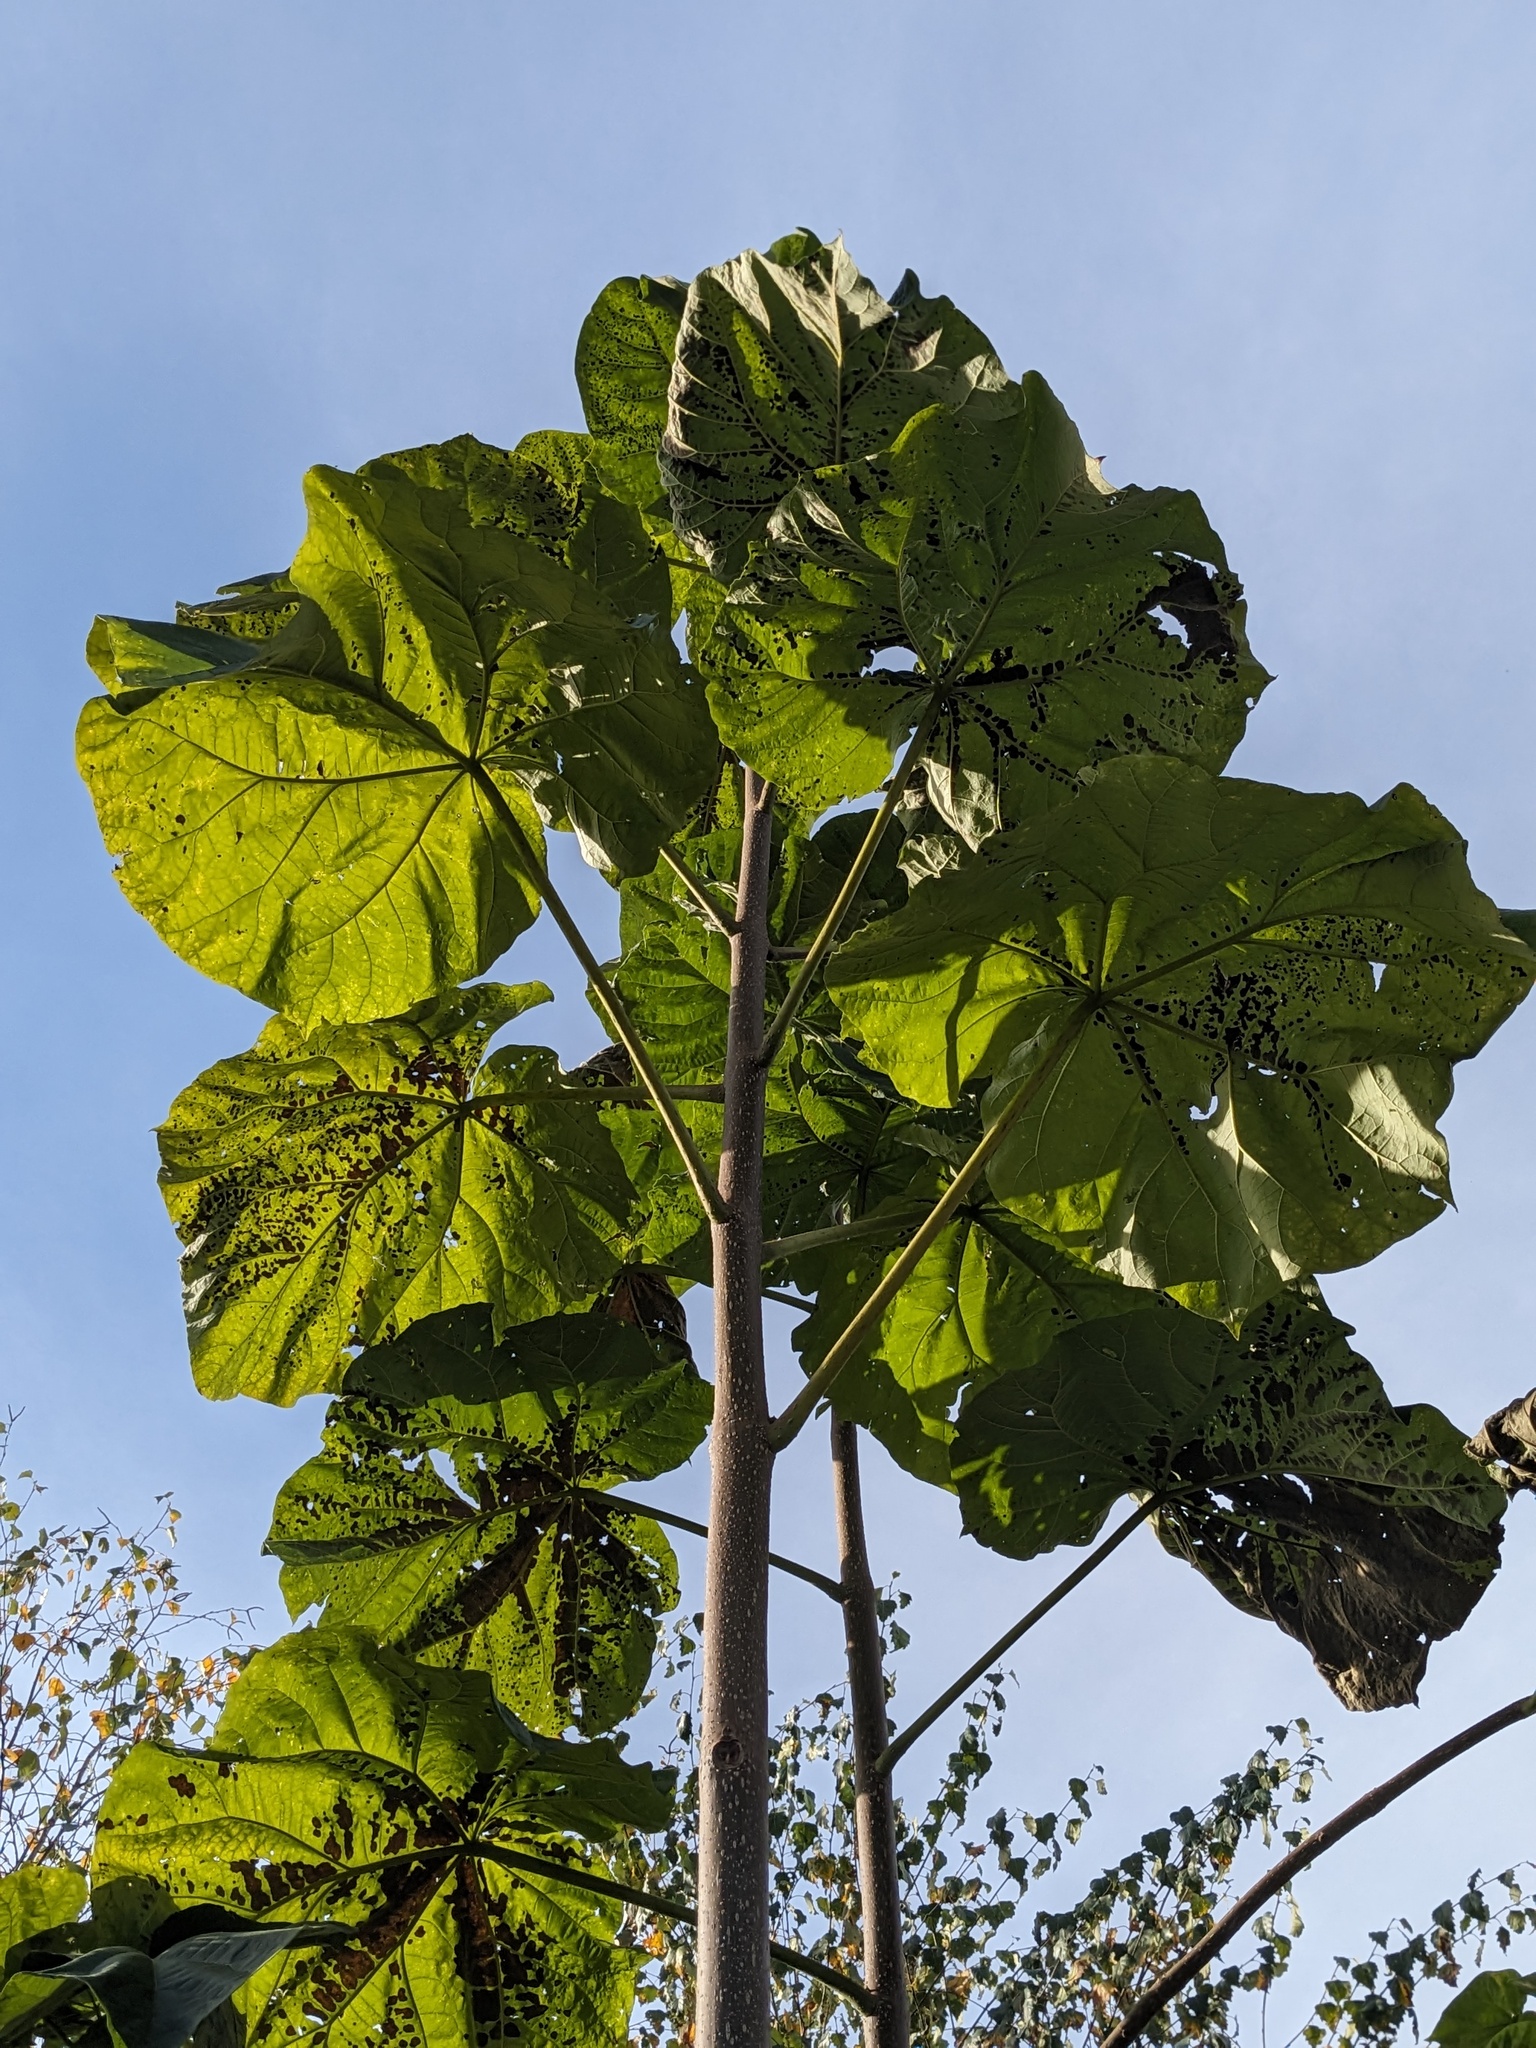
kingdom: Plantae
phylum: Tracheophyta
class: Magnoliopsida
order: Lamiales
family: Paulowniaceae
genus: Paulownia
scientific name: Paulownia tomentosa
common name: Foxglove-tree
